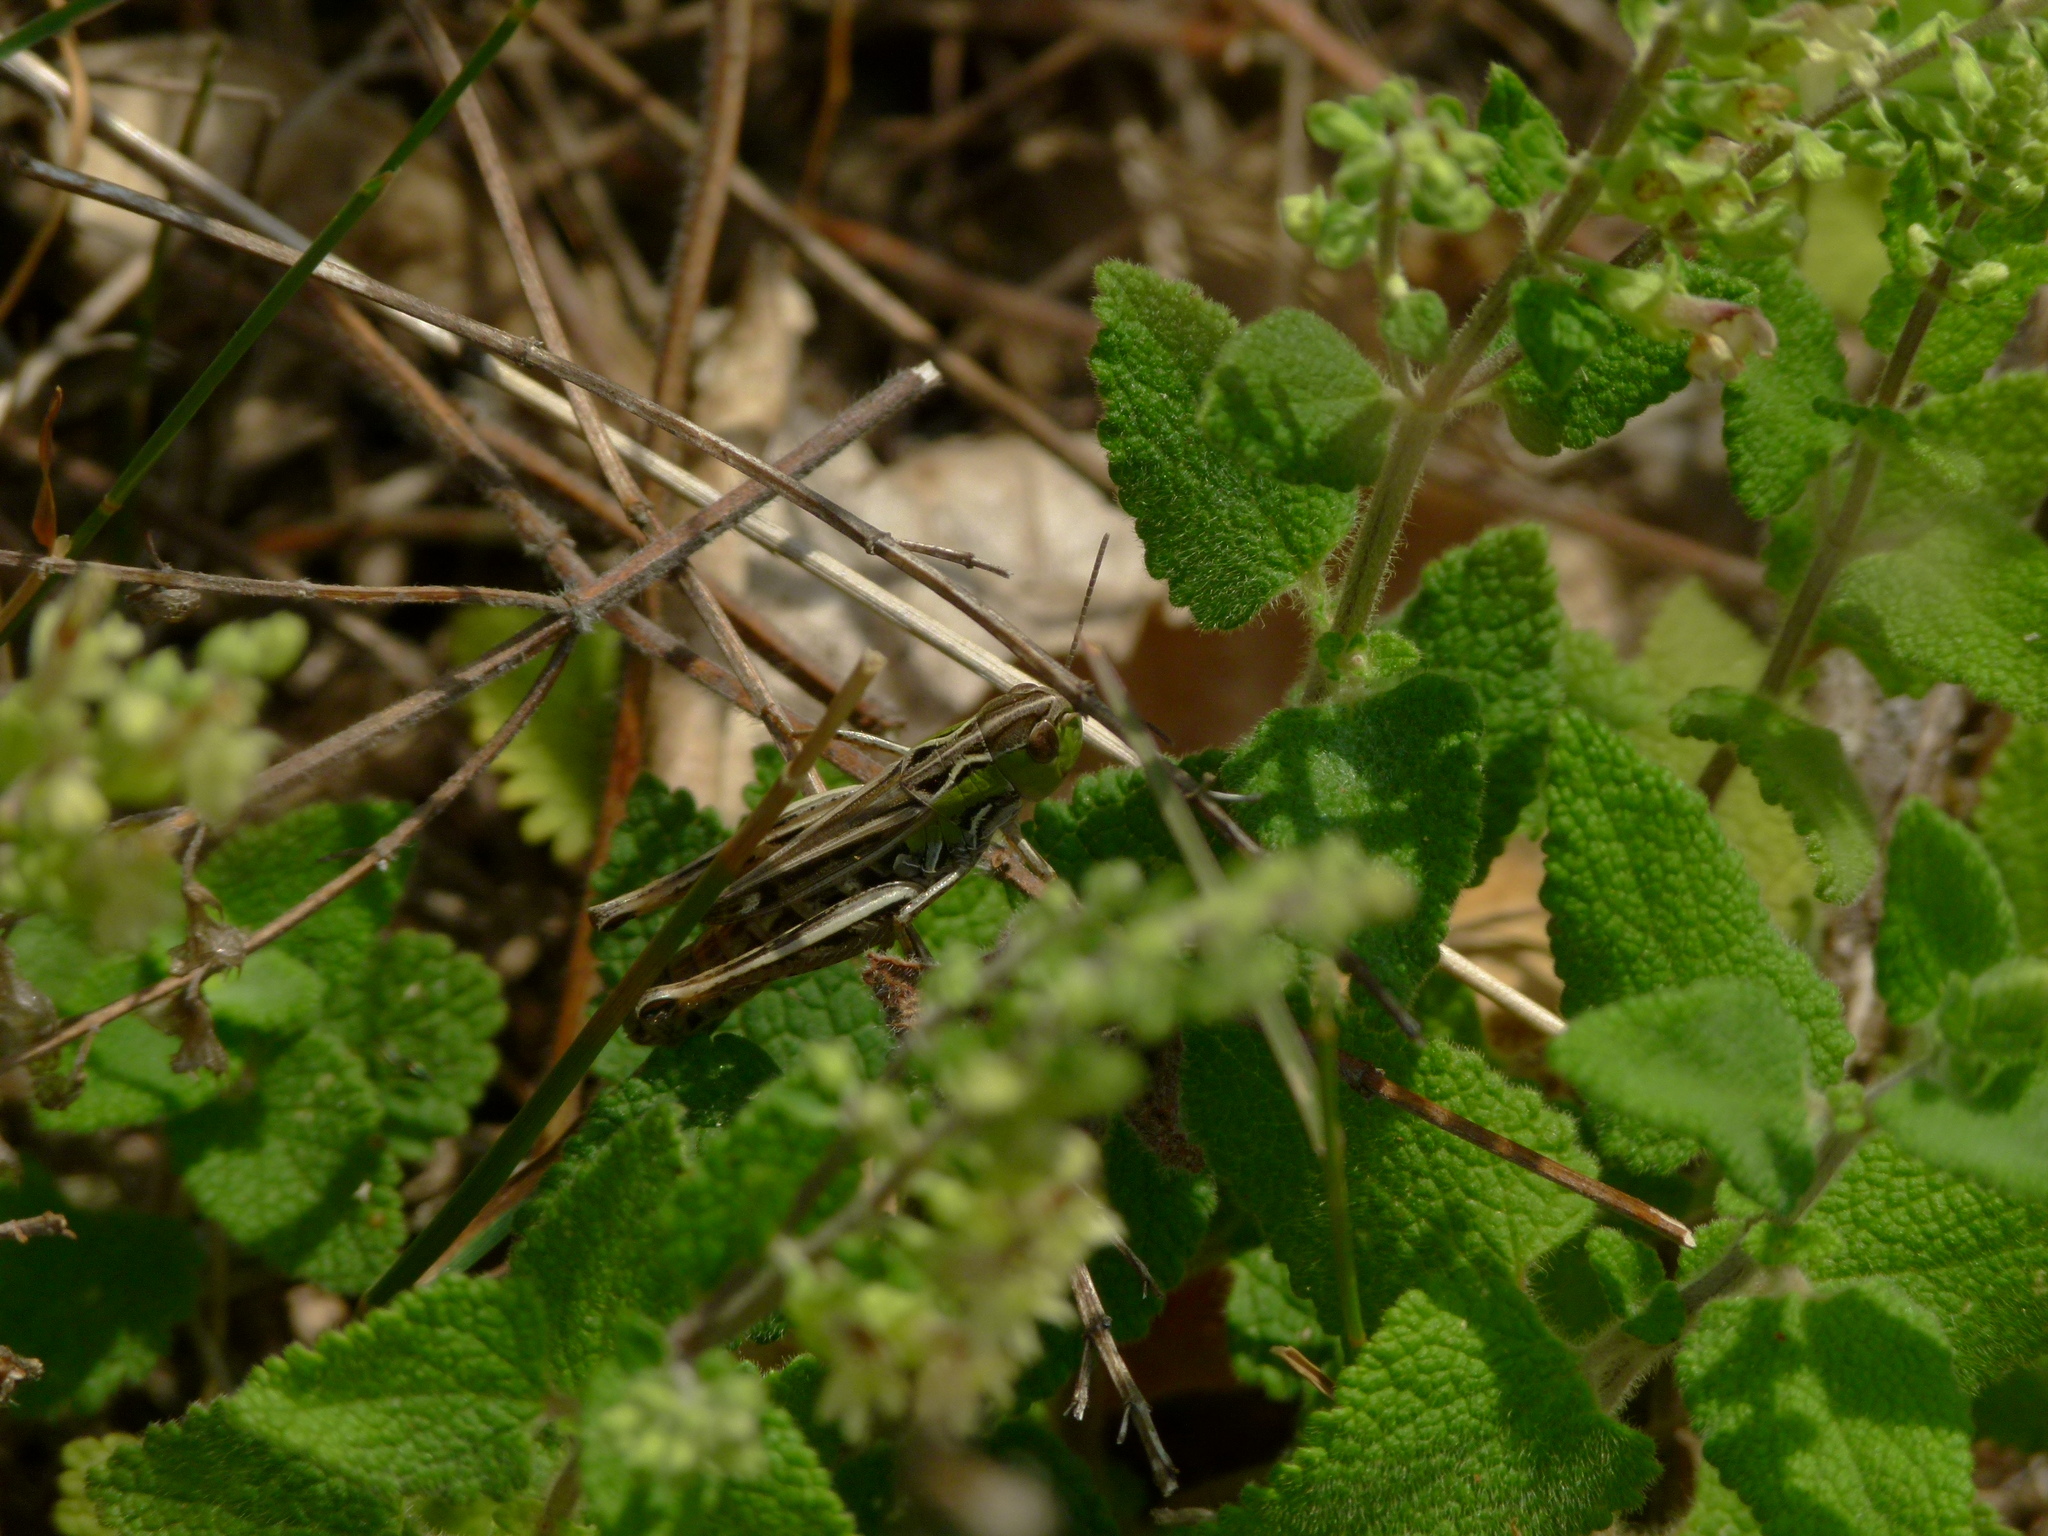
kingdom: Animalia
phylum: Arthropoda
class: Insecta
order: Orthoptera
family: Acrididae
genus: Stenobothrus
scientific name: Stenobothrus nigromaculatus
